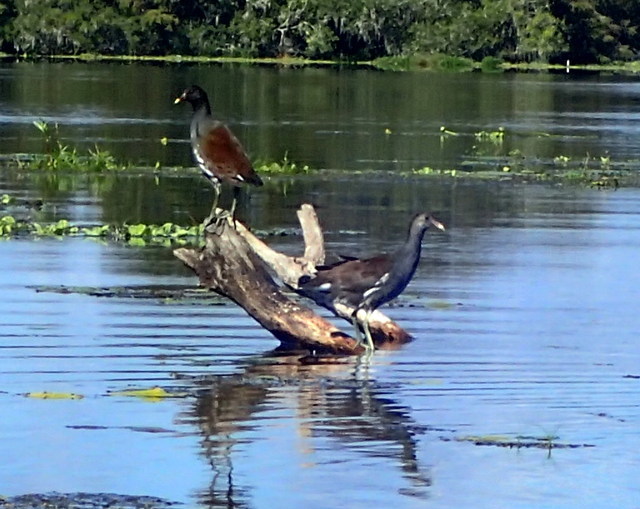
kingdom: Animalia
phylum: Chordata
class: Aves
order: Gruiformes
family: Rallidae
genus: Gallinula
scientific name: Gallinula chloropus
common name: Common moorhen
